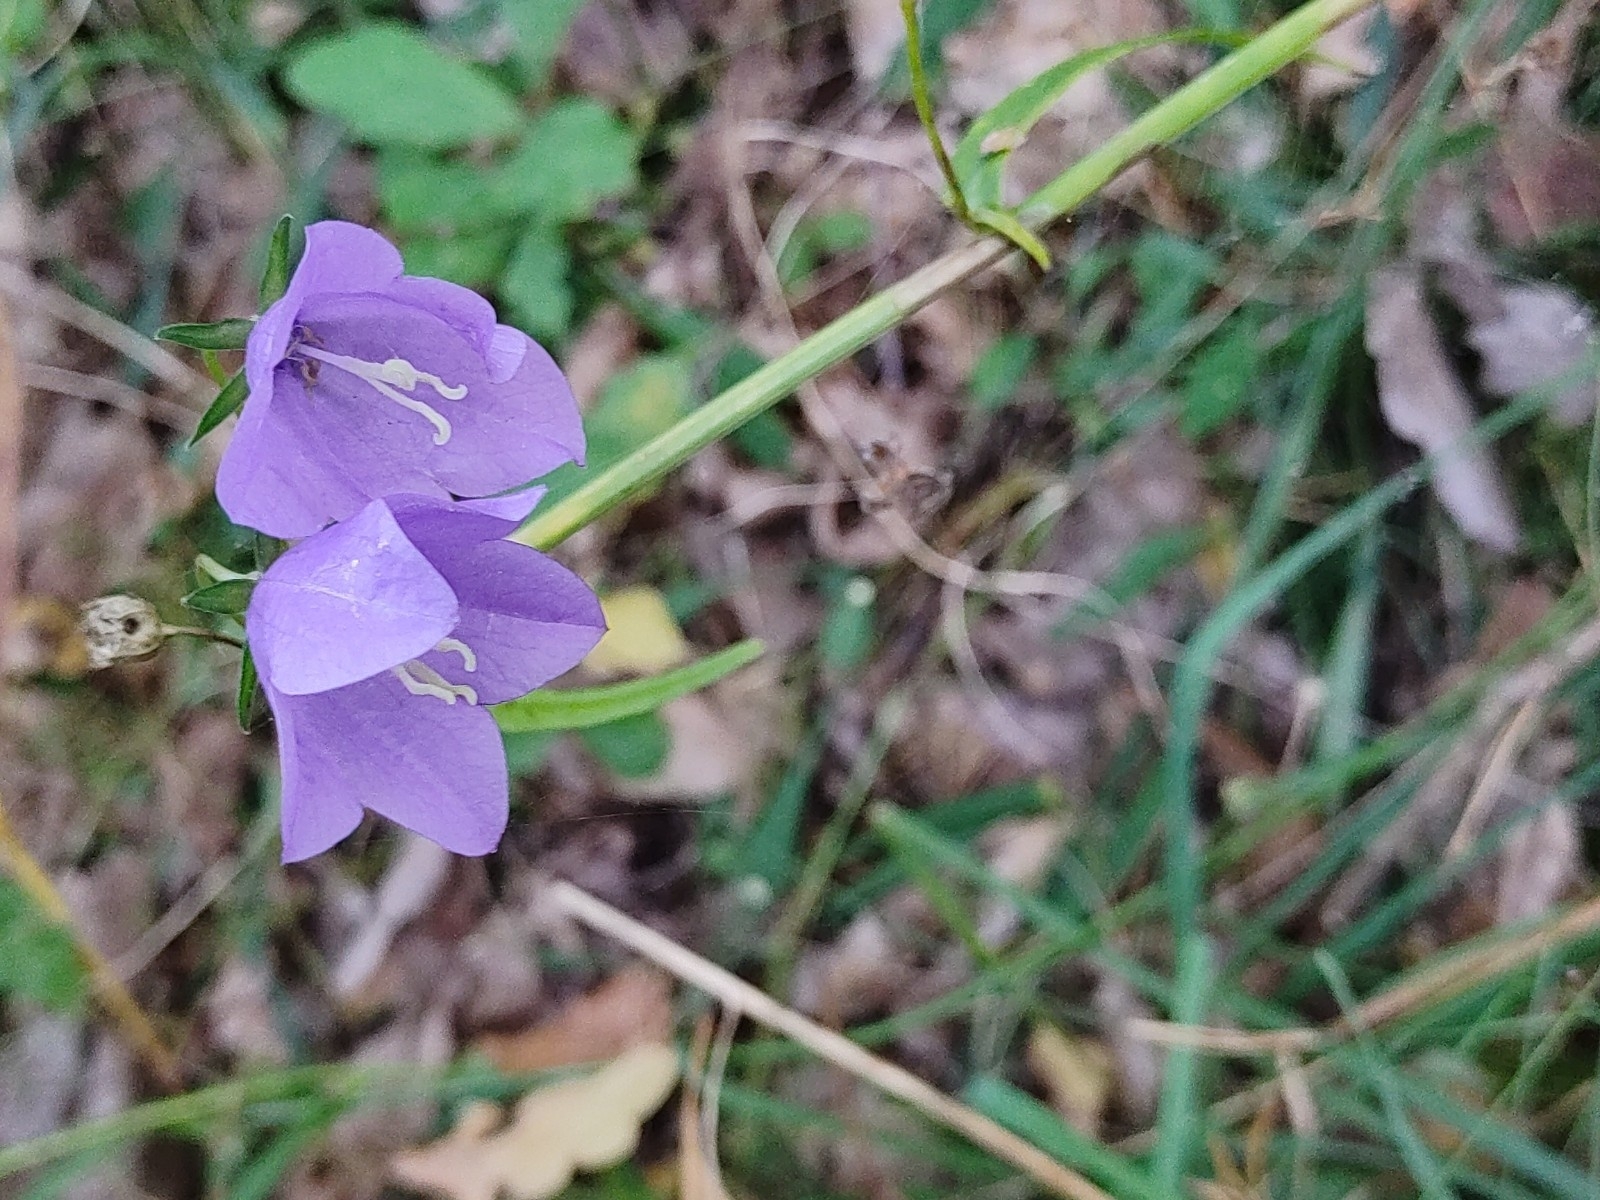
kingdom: Plantae
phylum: Tracheophyta
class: Magnoliopsida
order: Asterales
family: Campanulaceae
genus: Campanula
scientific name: Campanula persicifolia
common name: Peach-leaved bellflower
